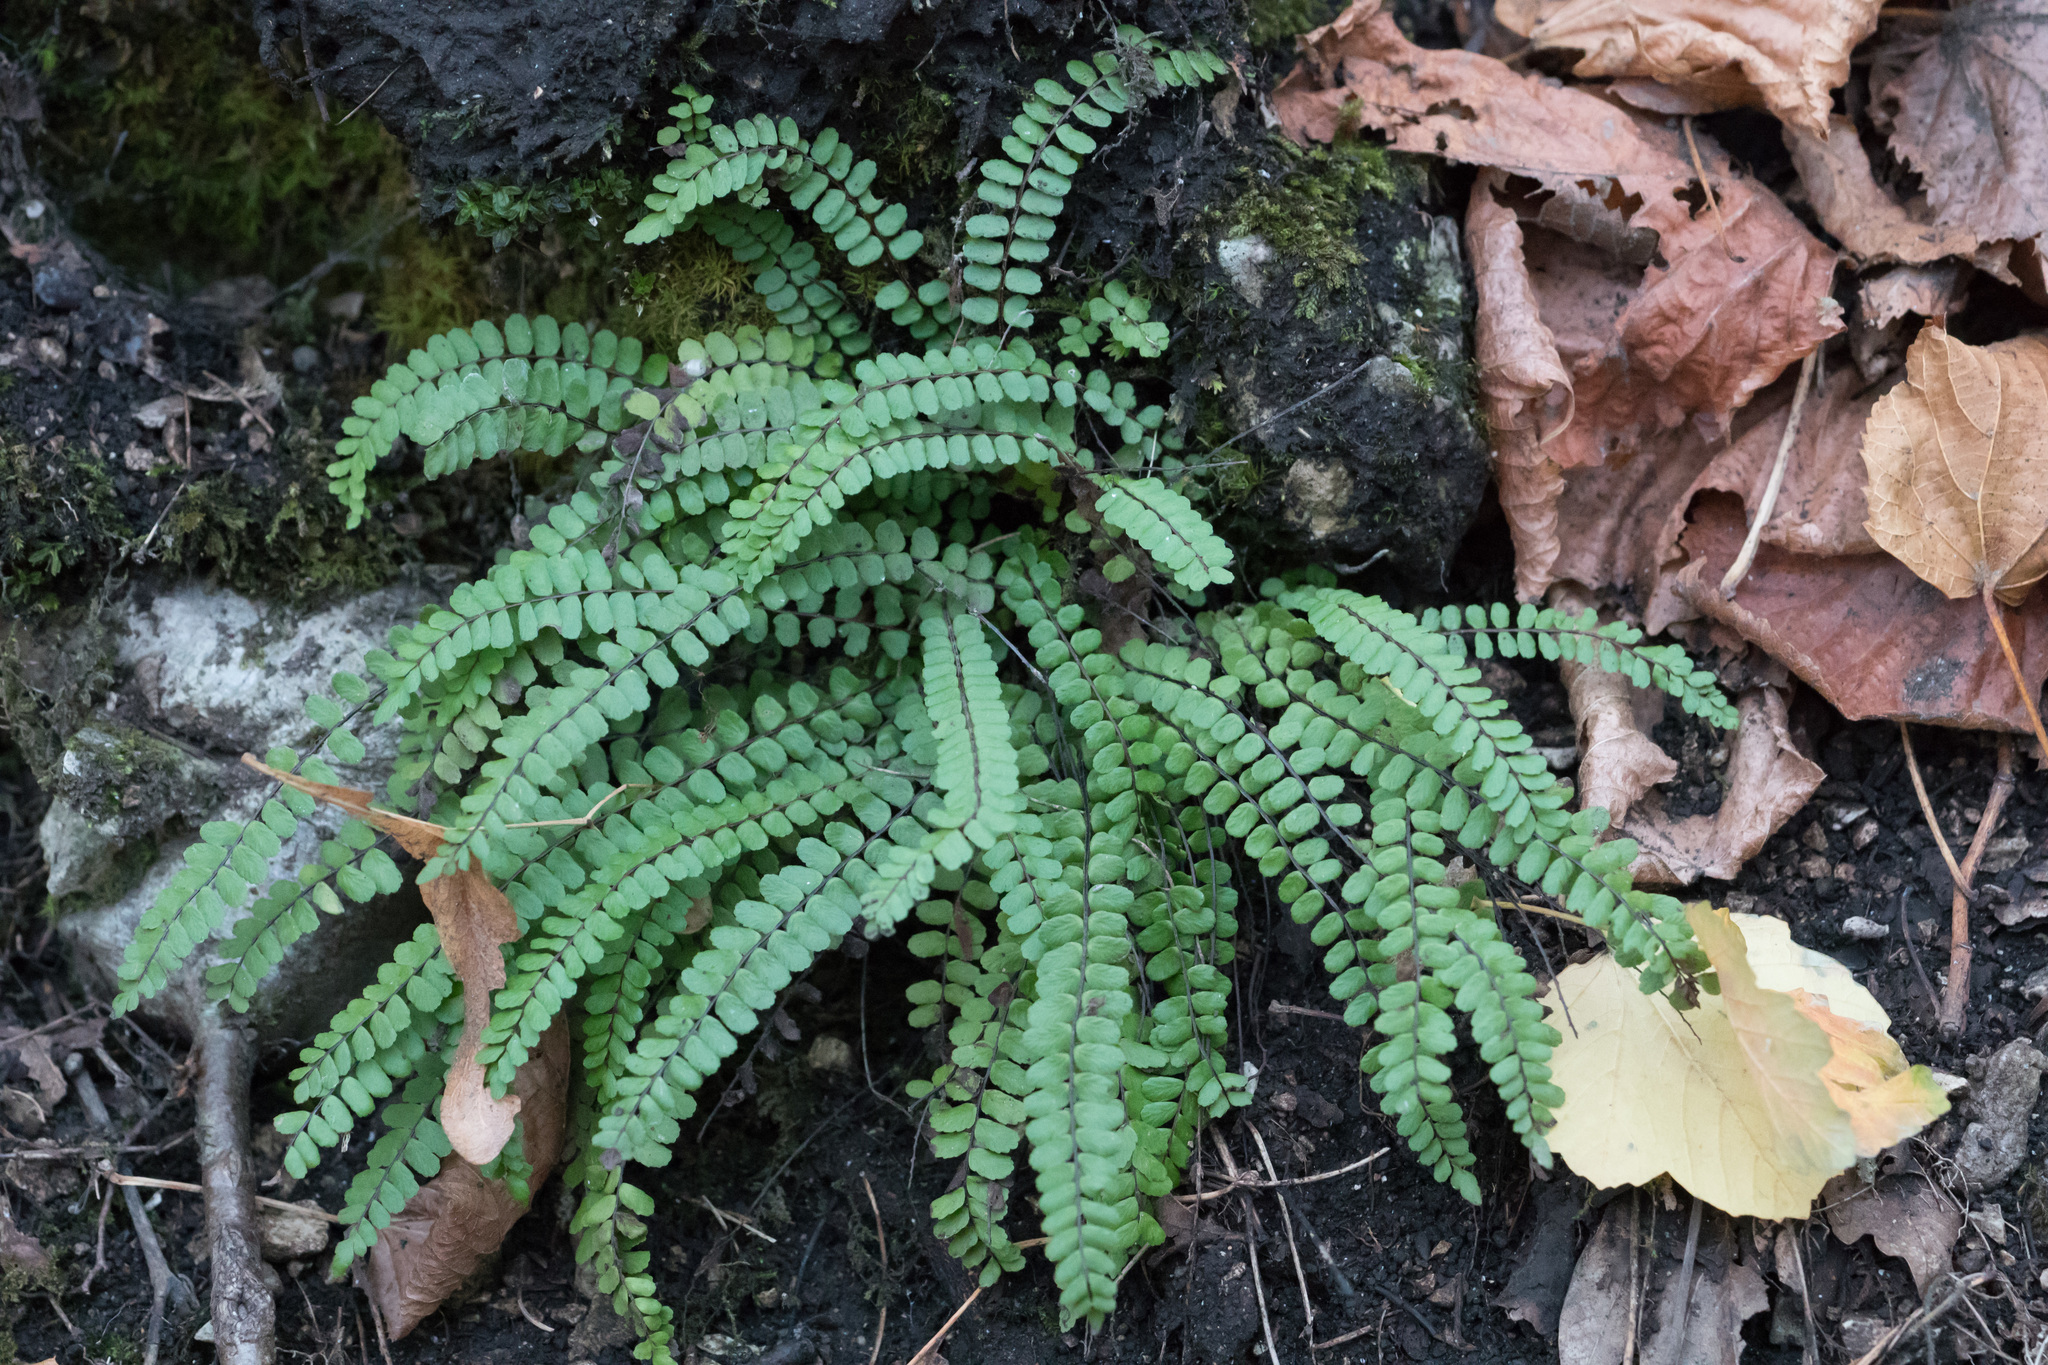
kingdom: Plantae
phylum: Tracheophyta
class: Polypodiopsida
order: Polypodiales
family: Aspleniaceae
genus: Asplenium
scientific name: Asplenium quadrivalens
